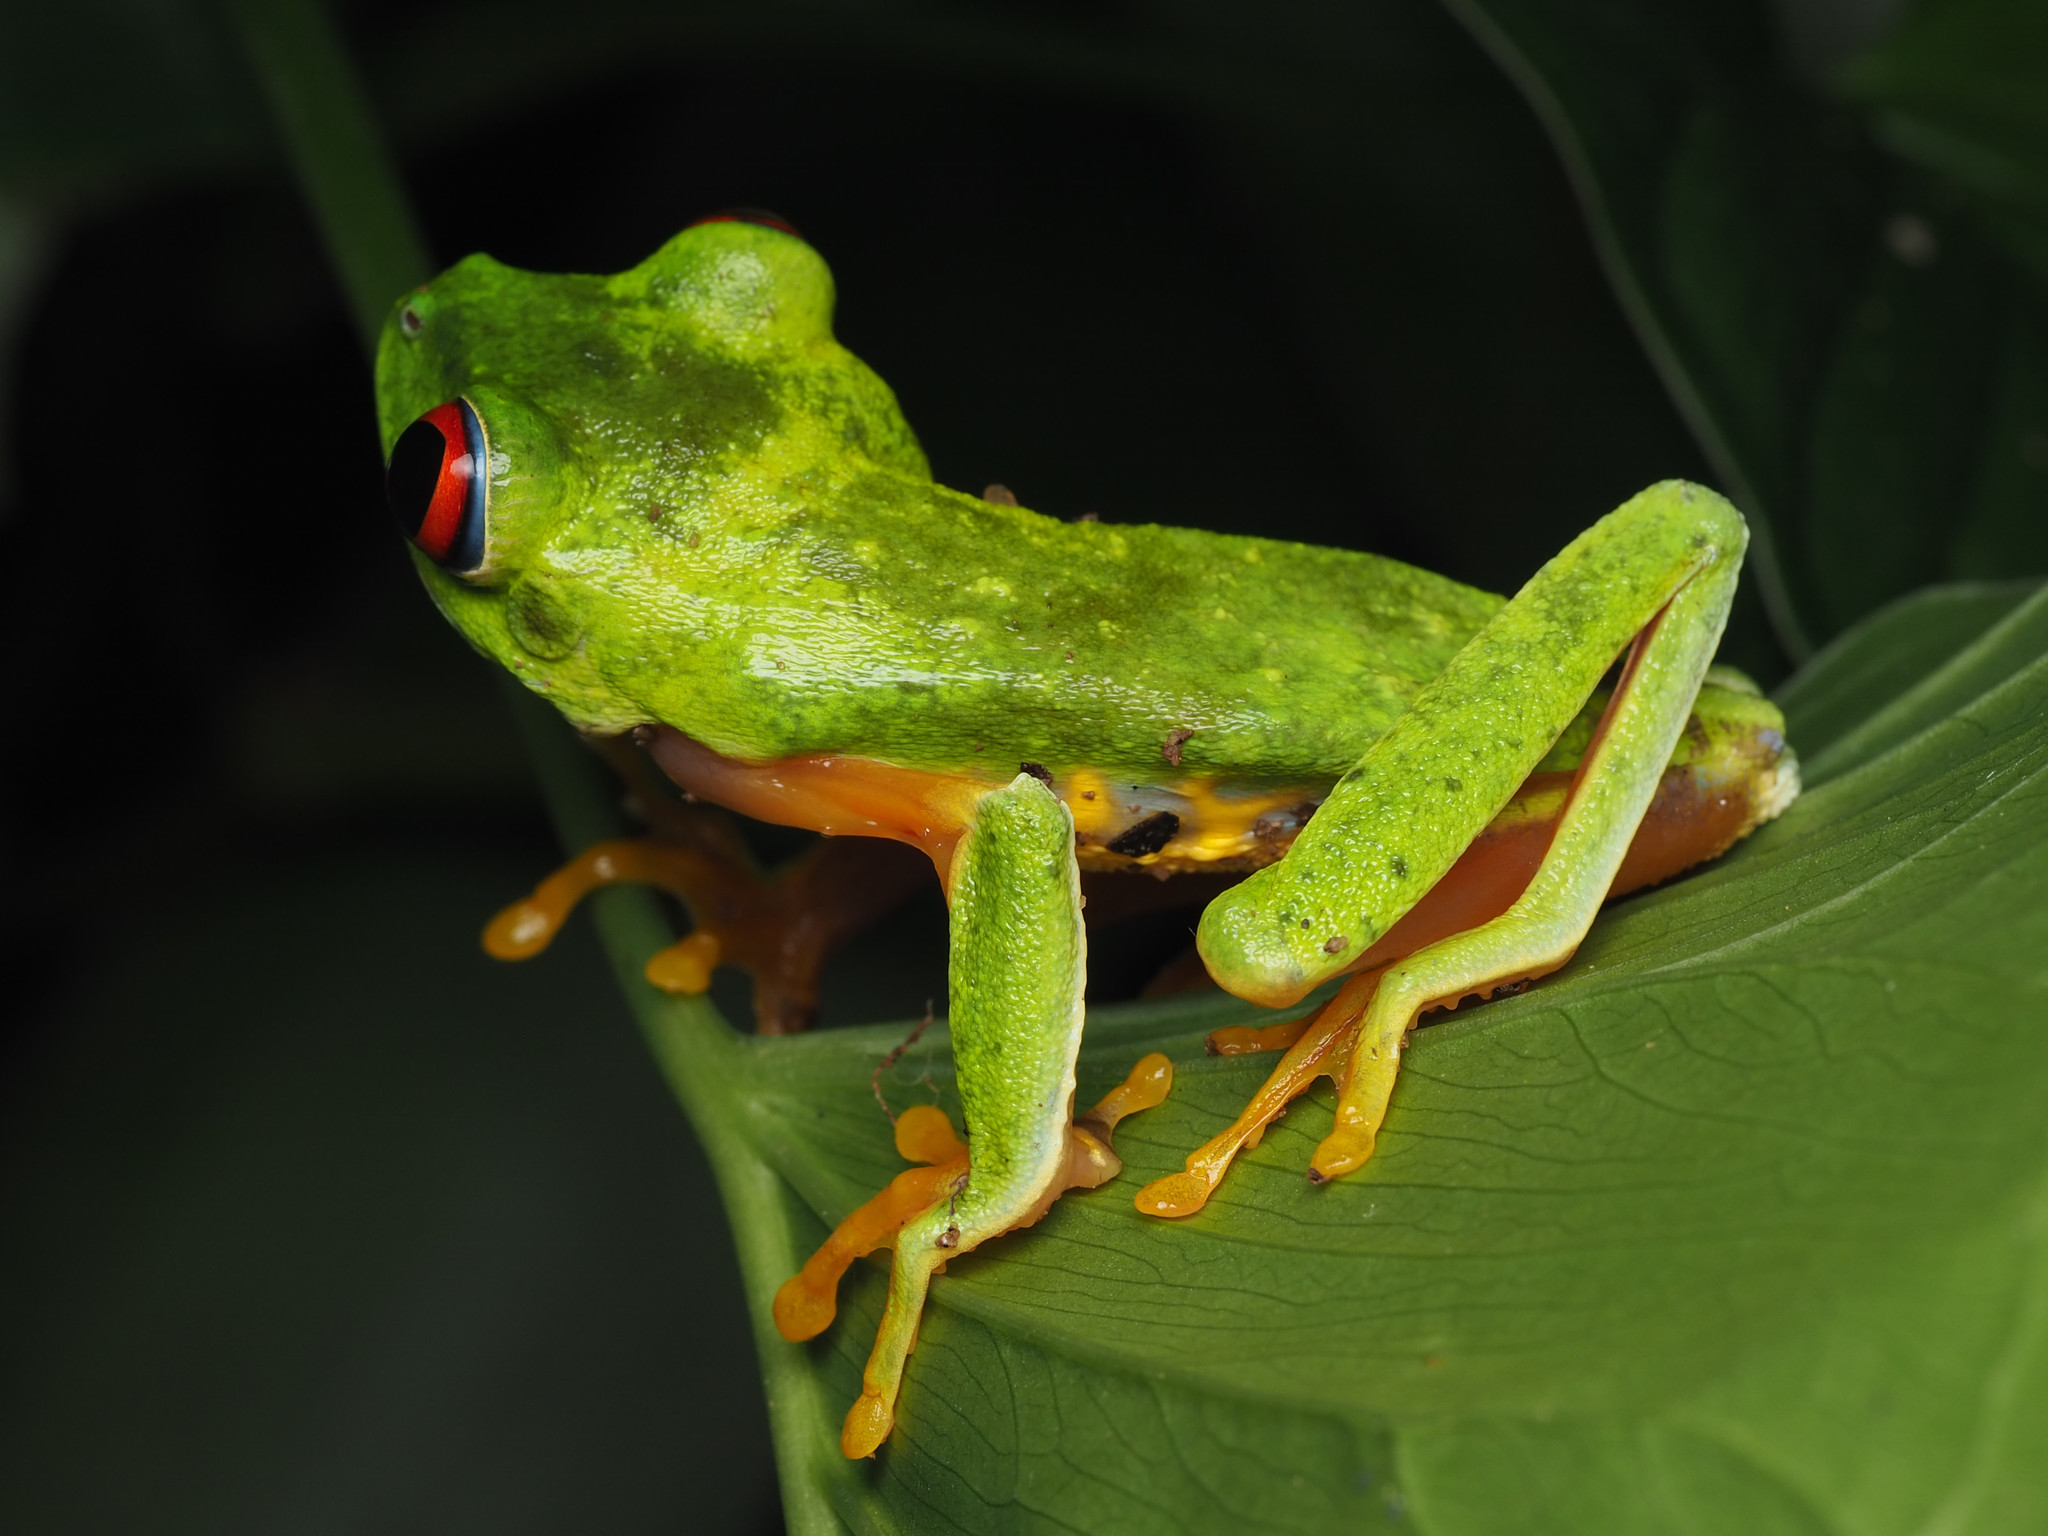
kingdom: Animalia
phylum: Chordata
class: Amphibia
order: Anura
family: Phyllomedusidae
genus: Agalychnis
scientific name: Agalychnis
